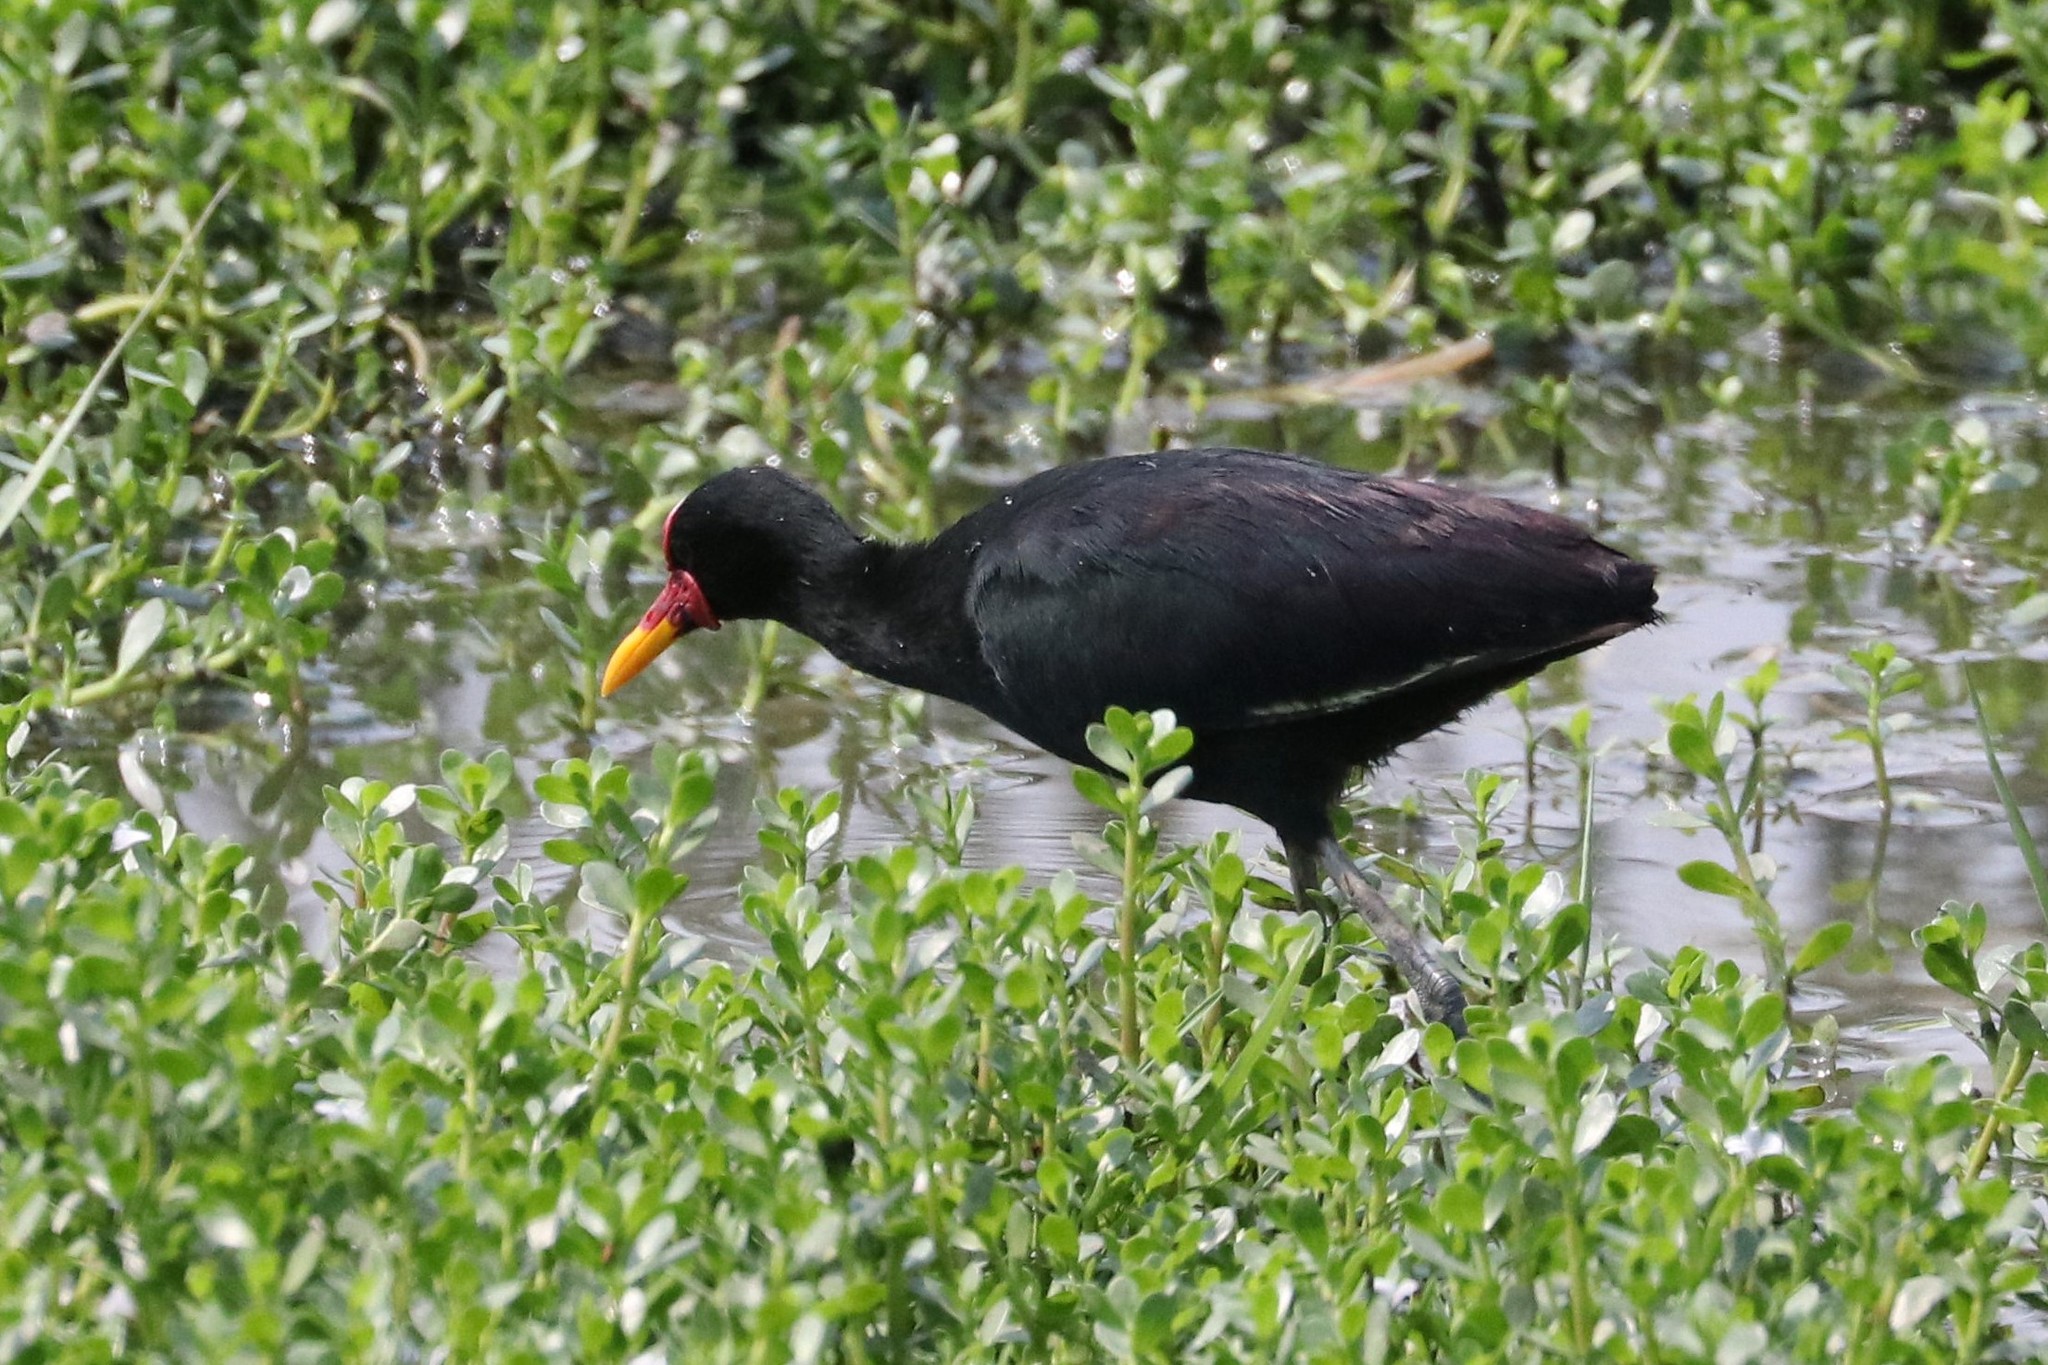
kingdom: Animalia
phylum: Chordata
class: Aves
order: Charadriiformes
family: Jacanidae
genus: Jacana
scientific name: Jacana jacana
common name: Wattled jacana
